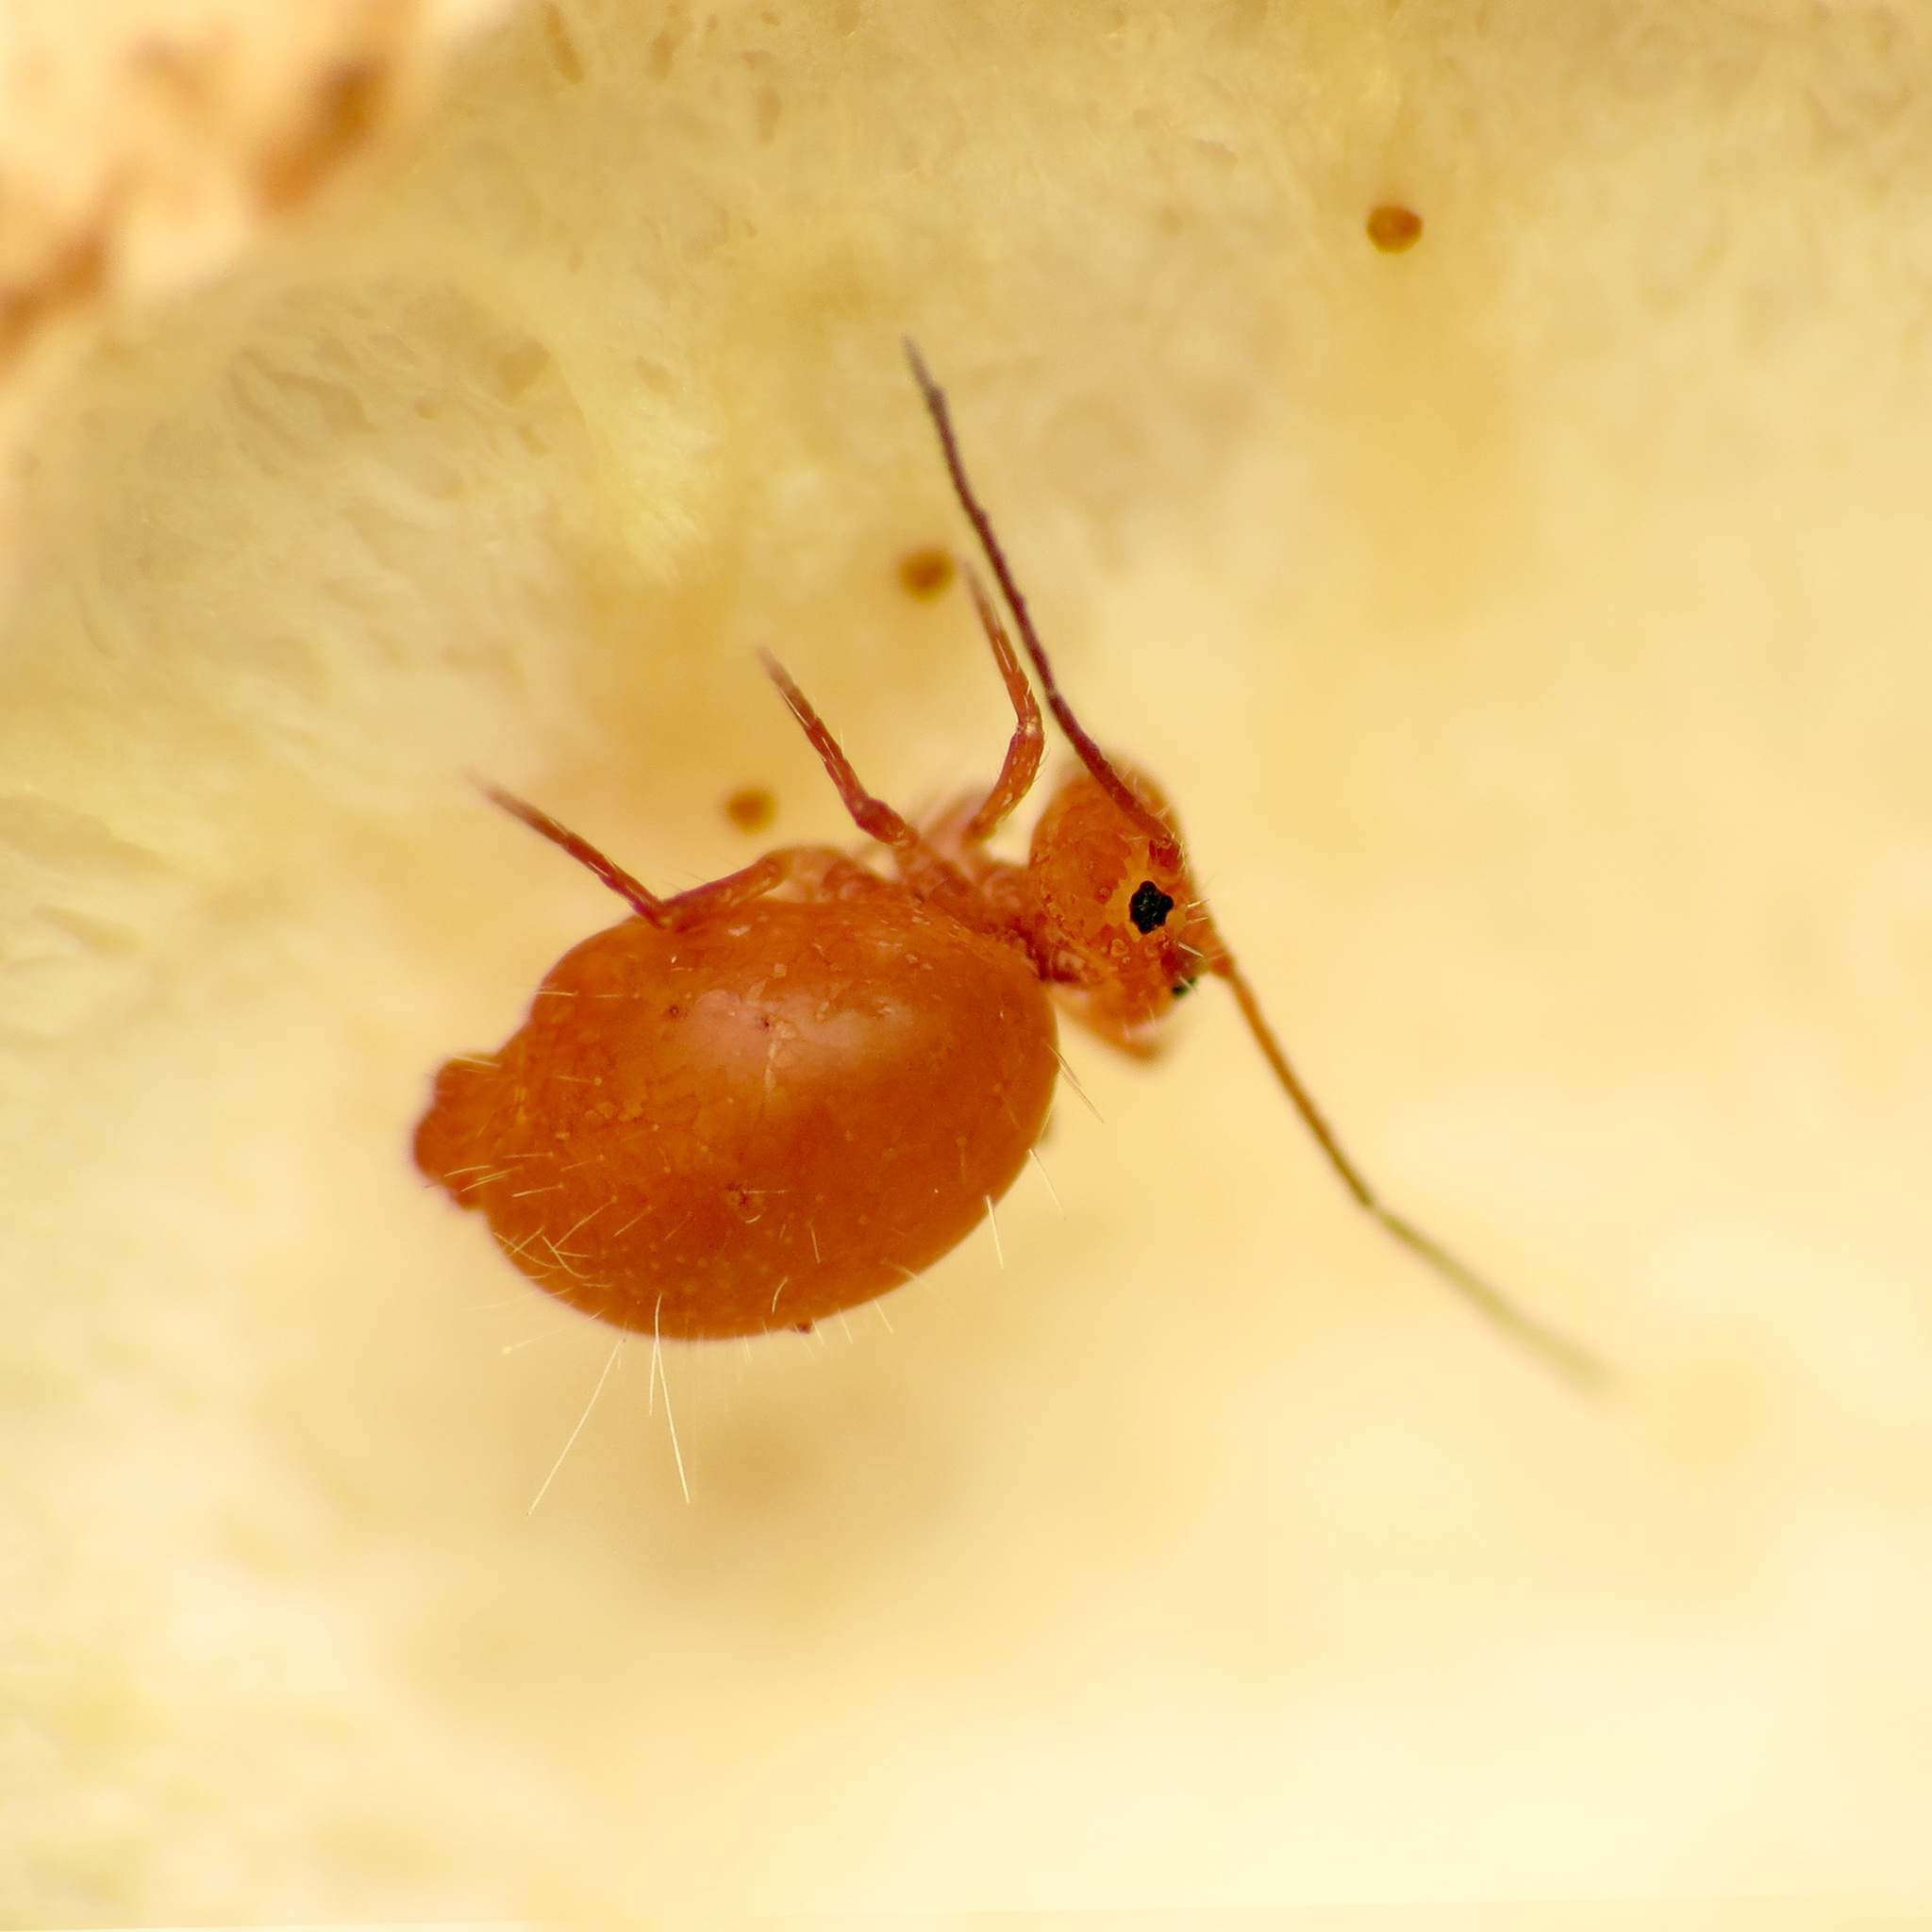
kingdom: Animalia
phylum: Arthropoda
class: Collembola
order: Symphypleona
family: Dicyrtomidae
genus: Ptenothrix
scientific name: Ptenothrix unicolor
